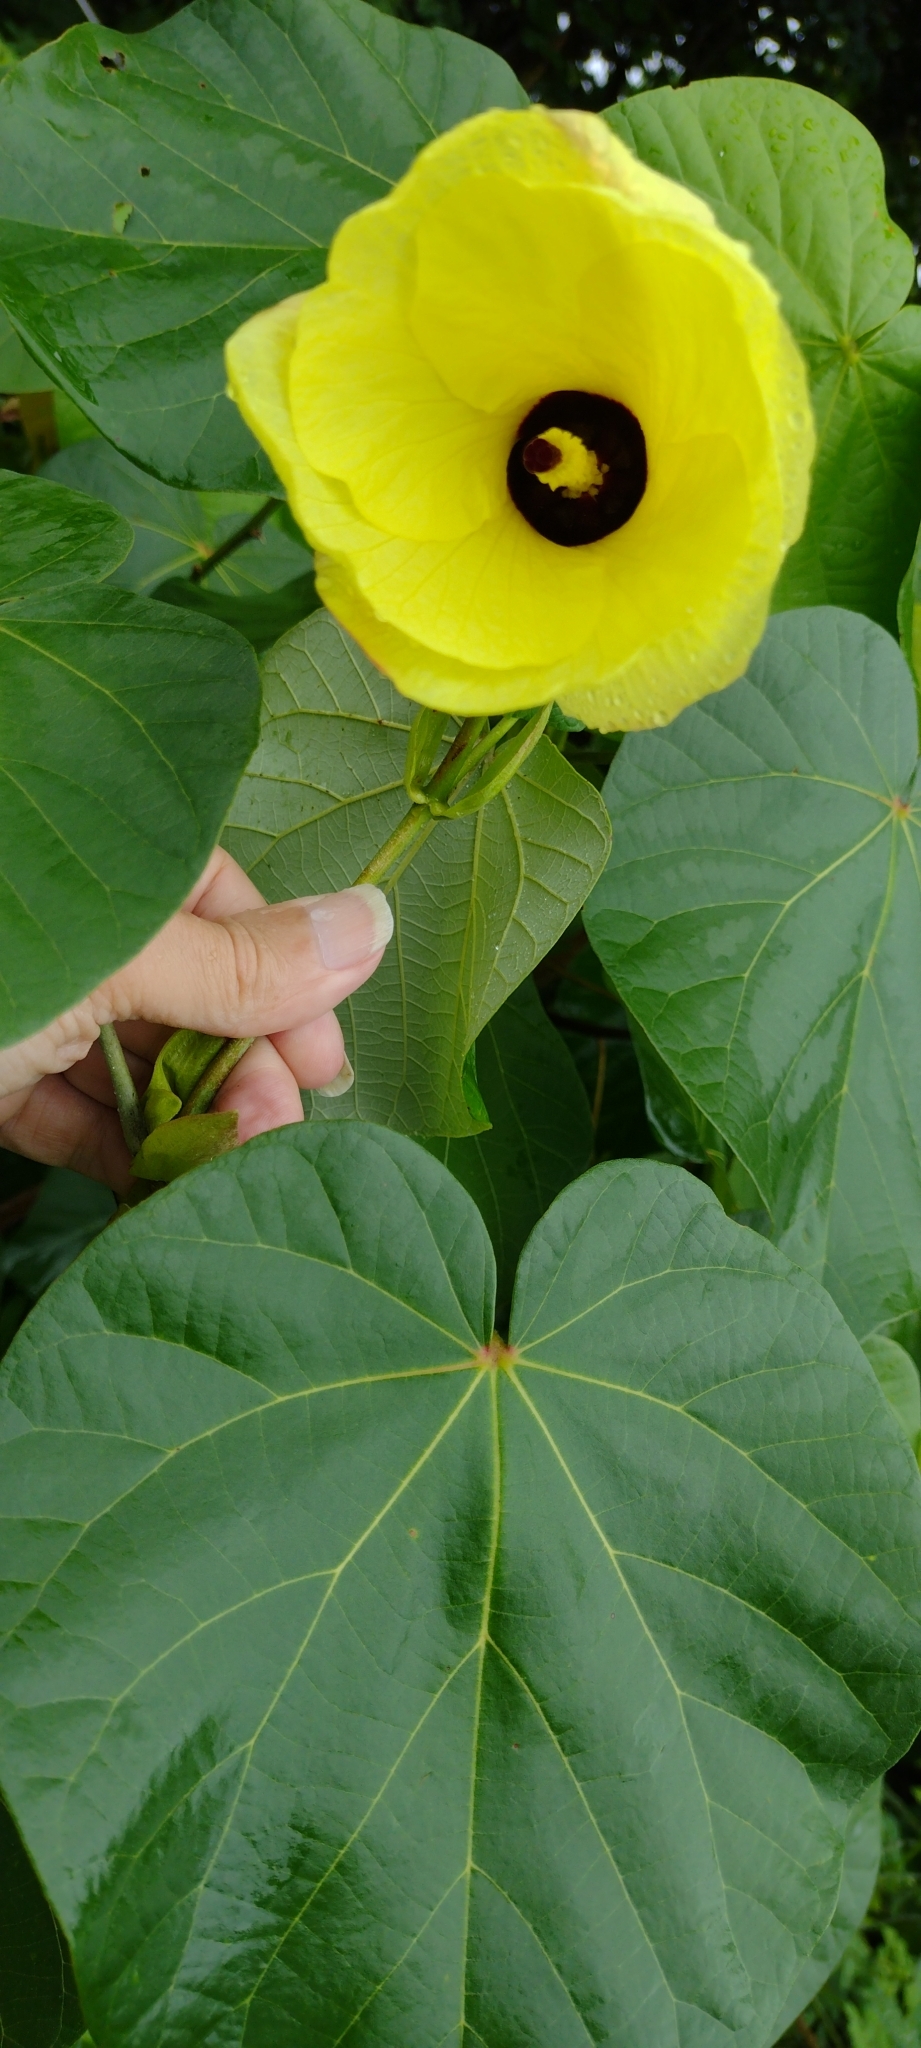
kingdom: Plantae
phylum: Tracheophyta
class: Magnoliopsida
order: Malvales
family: Malvaceae
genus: Talipariti
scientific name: Talipariti tiliaceum
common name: Sea hibiscus
